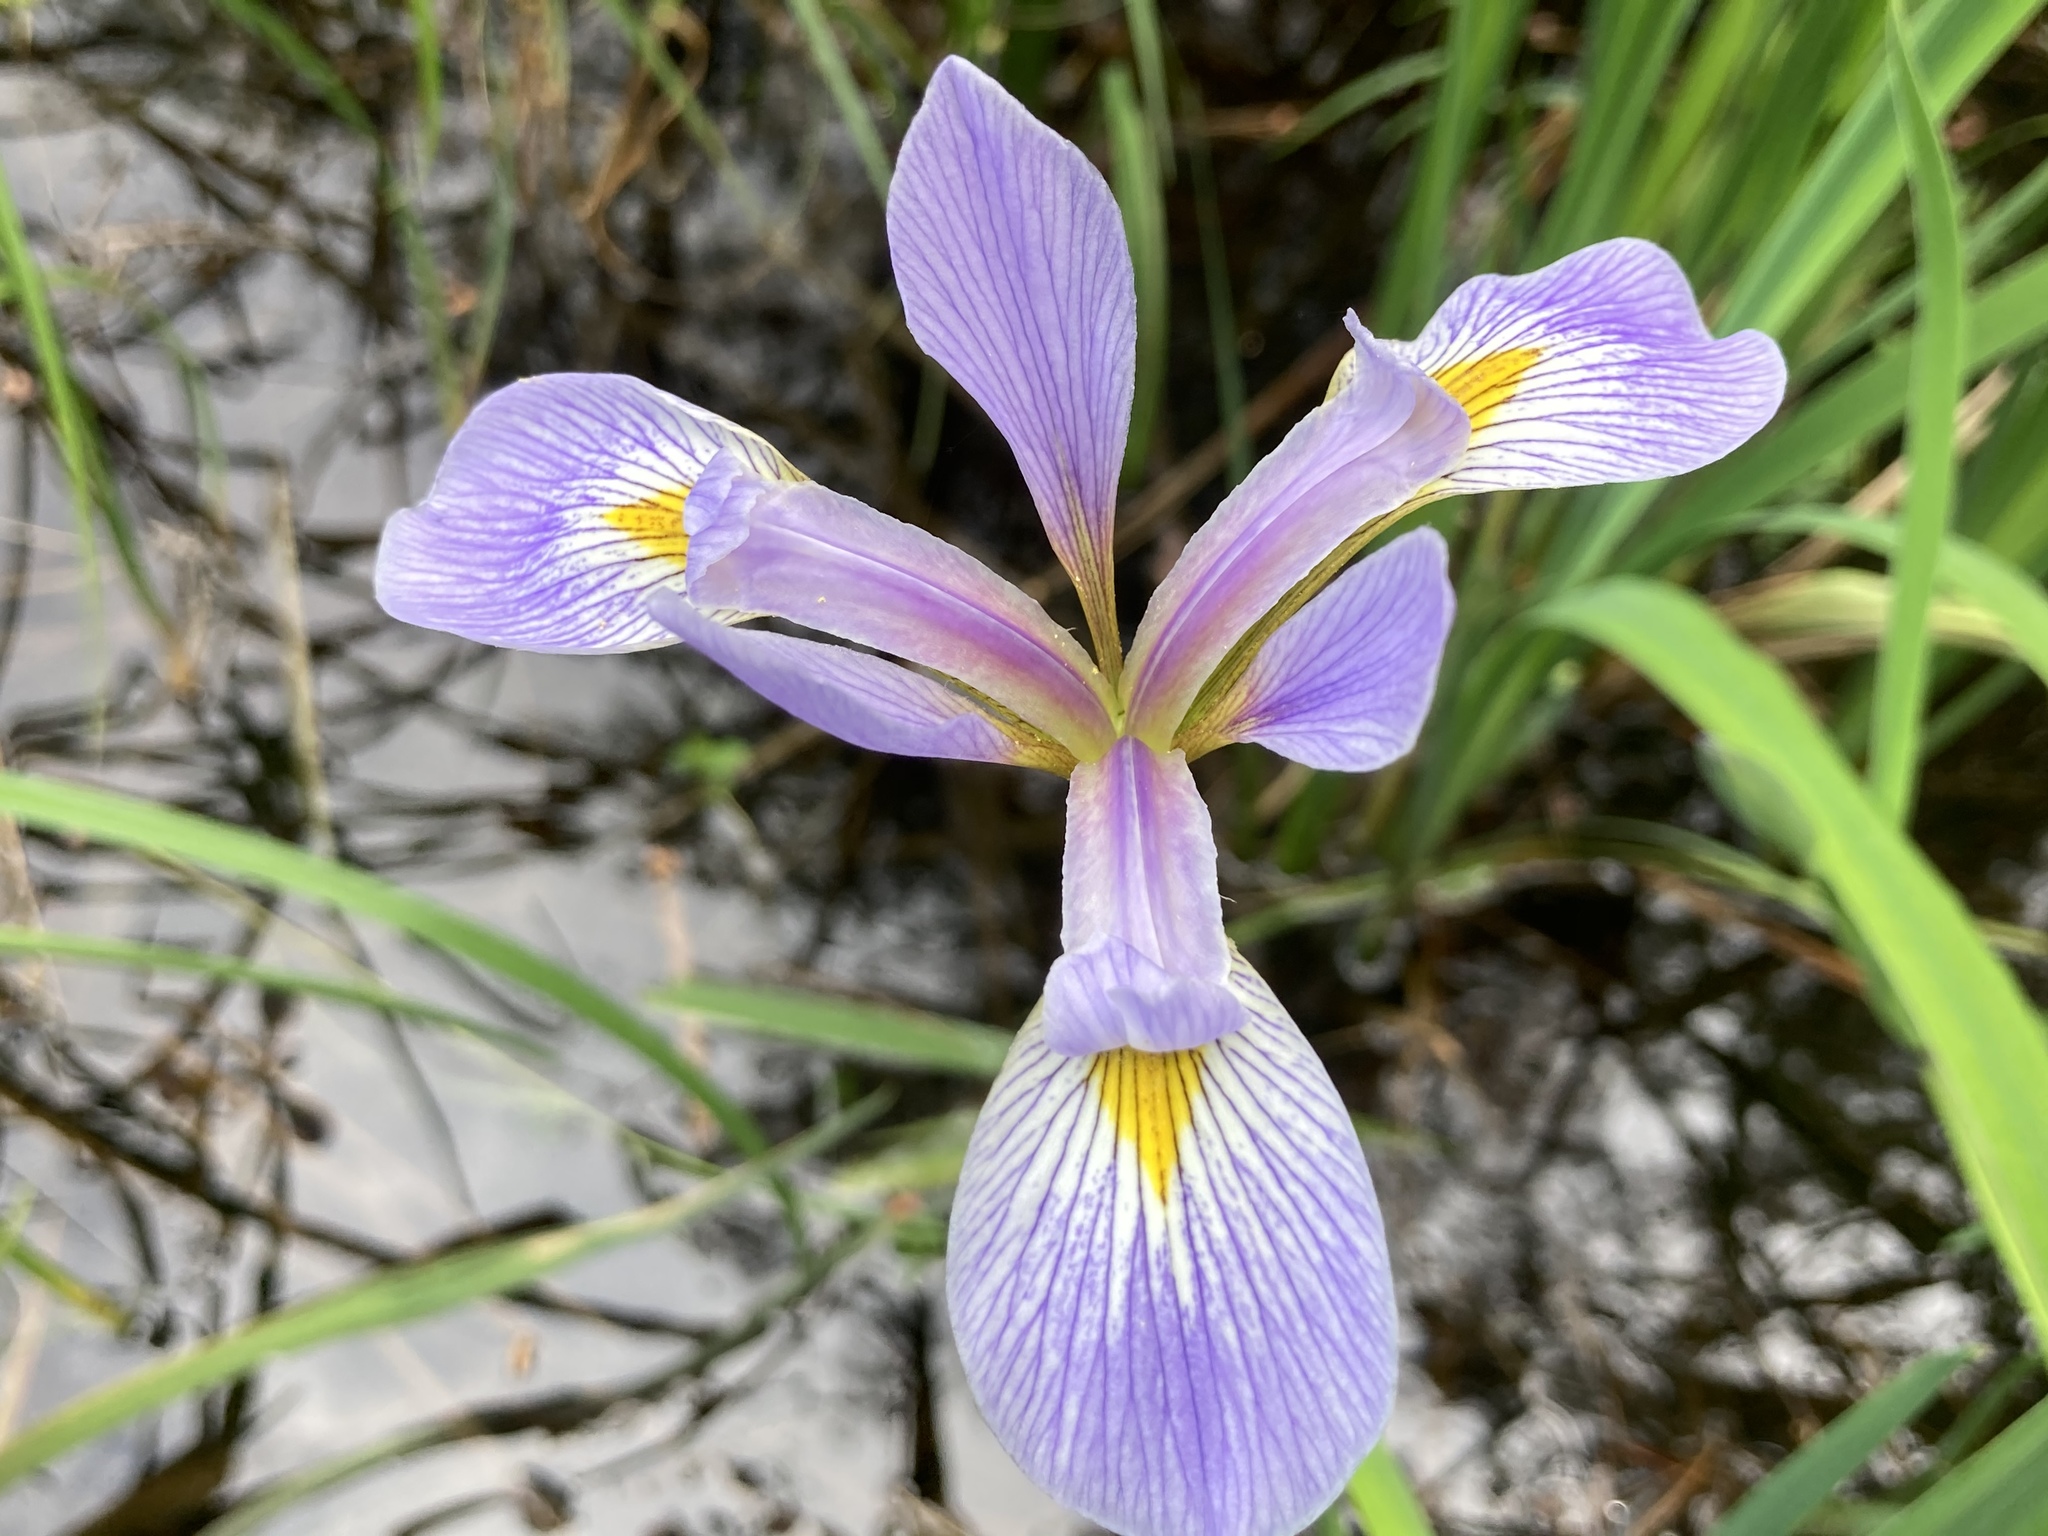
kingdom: Plantae
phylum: Tracheophyta
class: Liliopsida
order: Asparagales
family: Iridaceae
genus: Iris
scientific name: Iris virginica
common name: Southern blue flag
